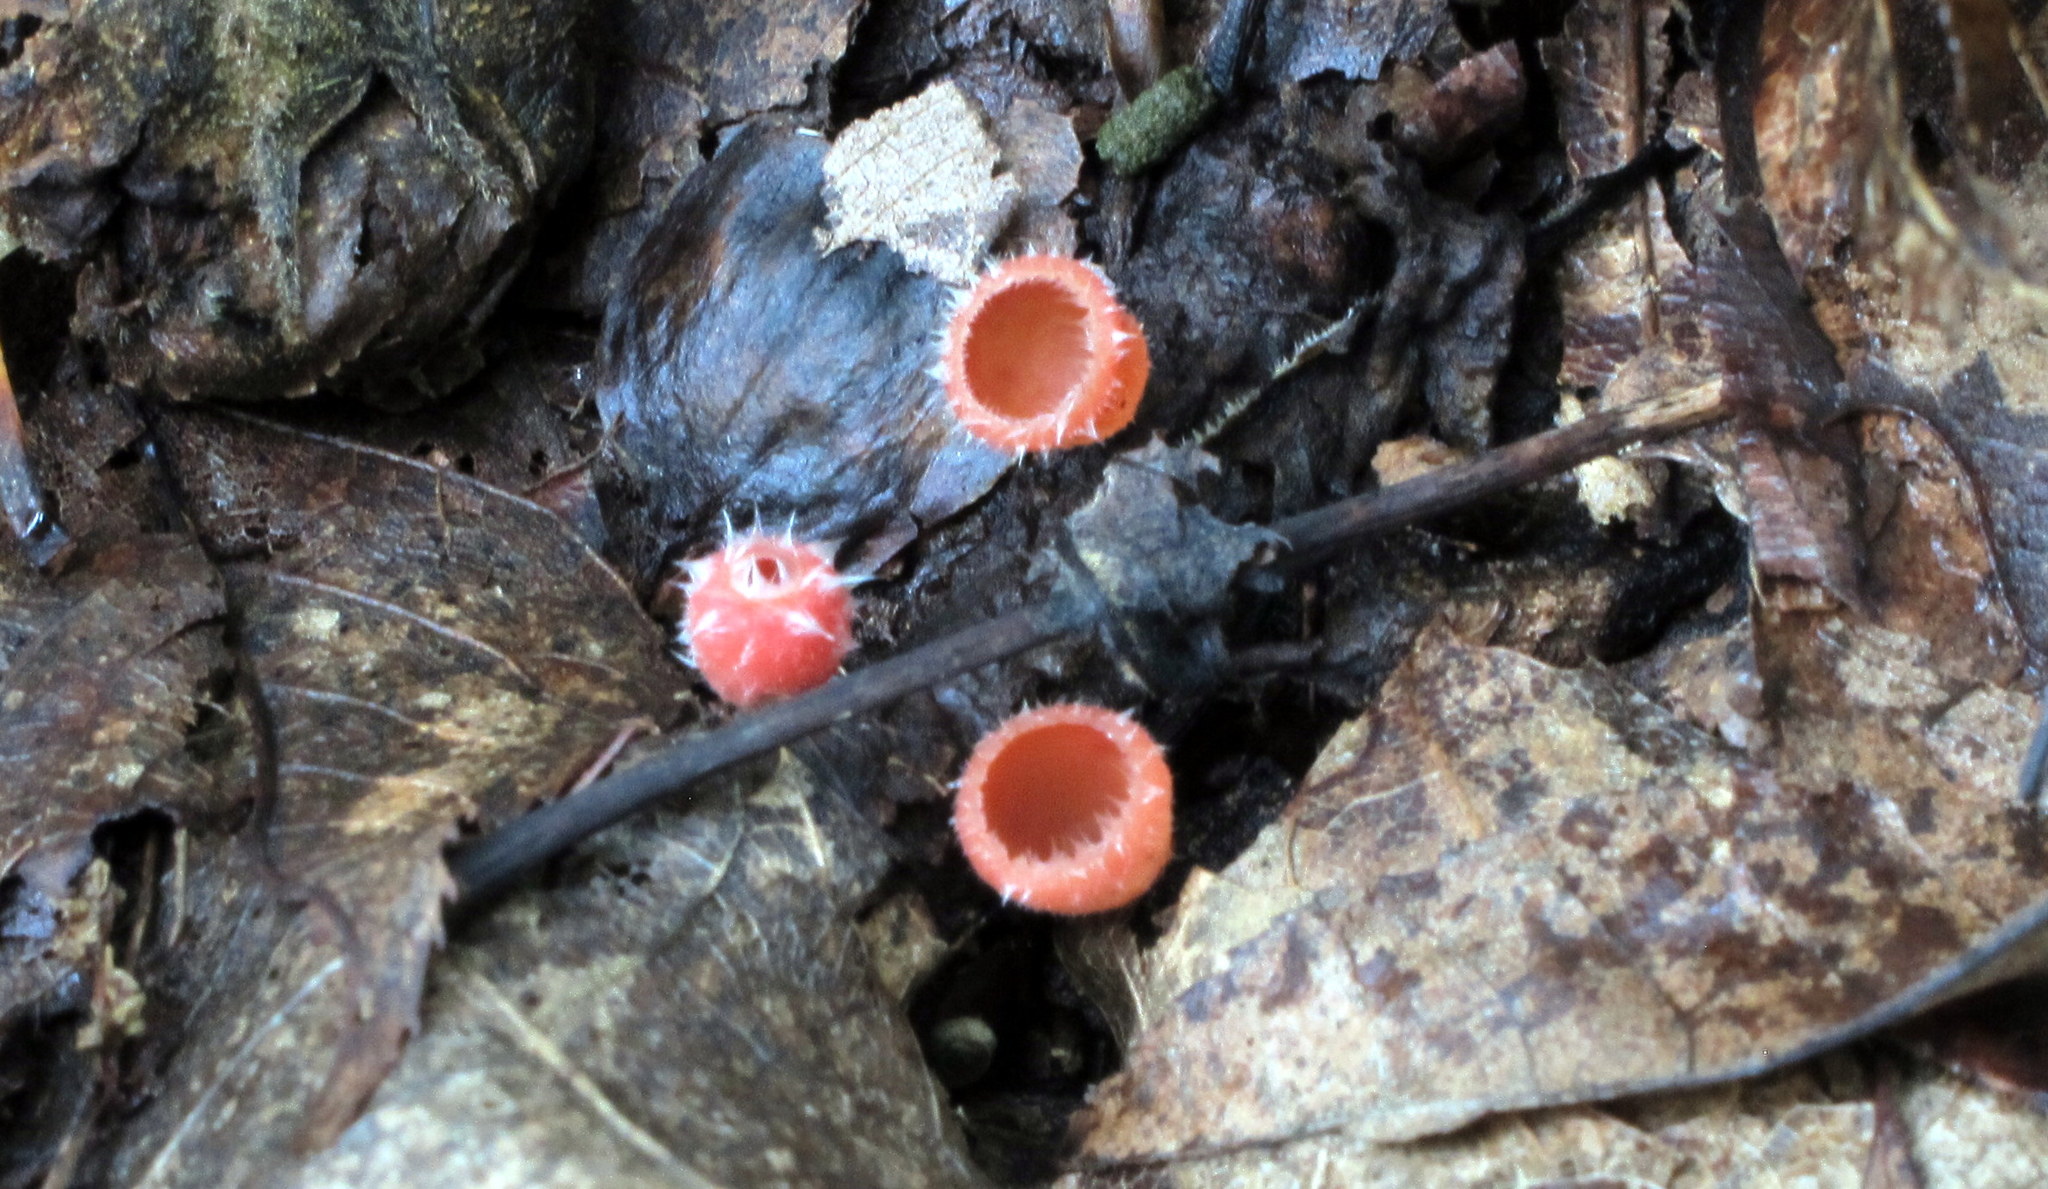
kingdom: Fungi
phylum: Ascomycota
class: Pezizomycetes
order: Pezizales
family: Sarcoscyphaceae
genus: Microstoma
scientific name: Microstoma floccosum
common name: Pink fringed faery cup
